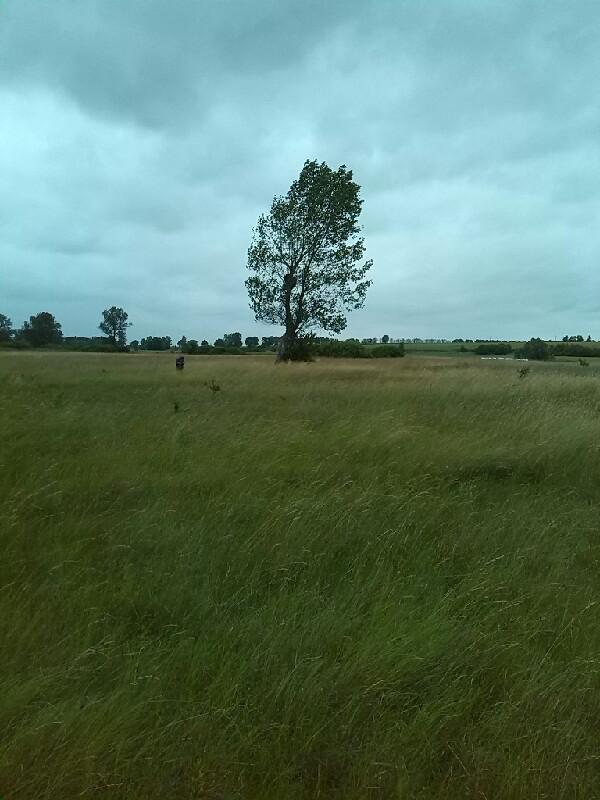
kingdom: Plantae
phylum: Tracheophyta
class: Magnoliopsida
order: Santalales
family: Viscaceae
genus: Viscum
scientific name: Viscum album
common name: Mistletoe
